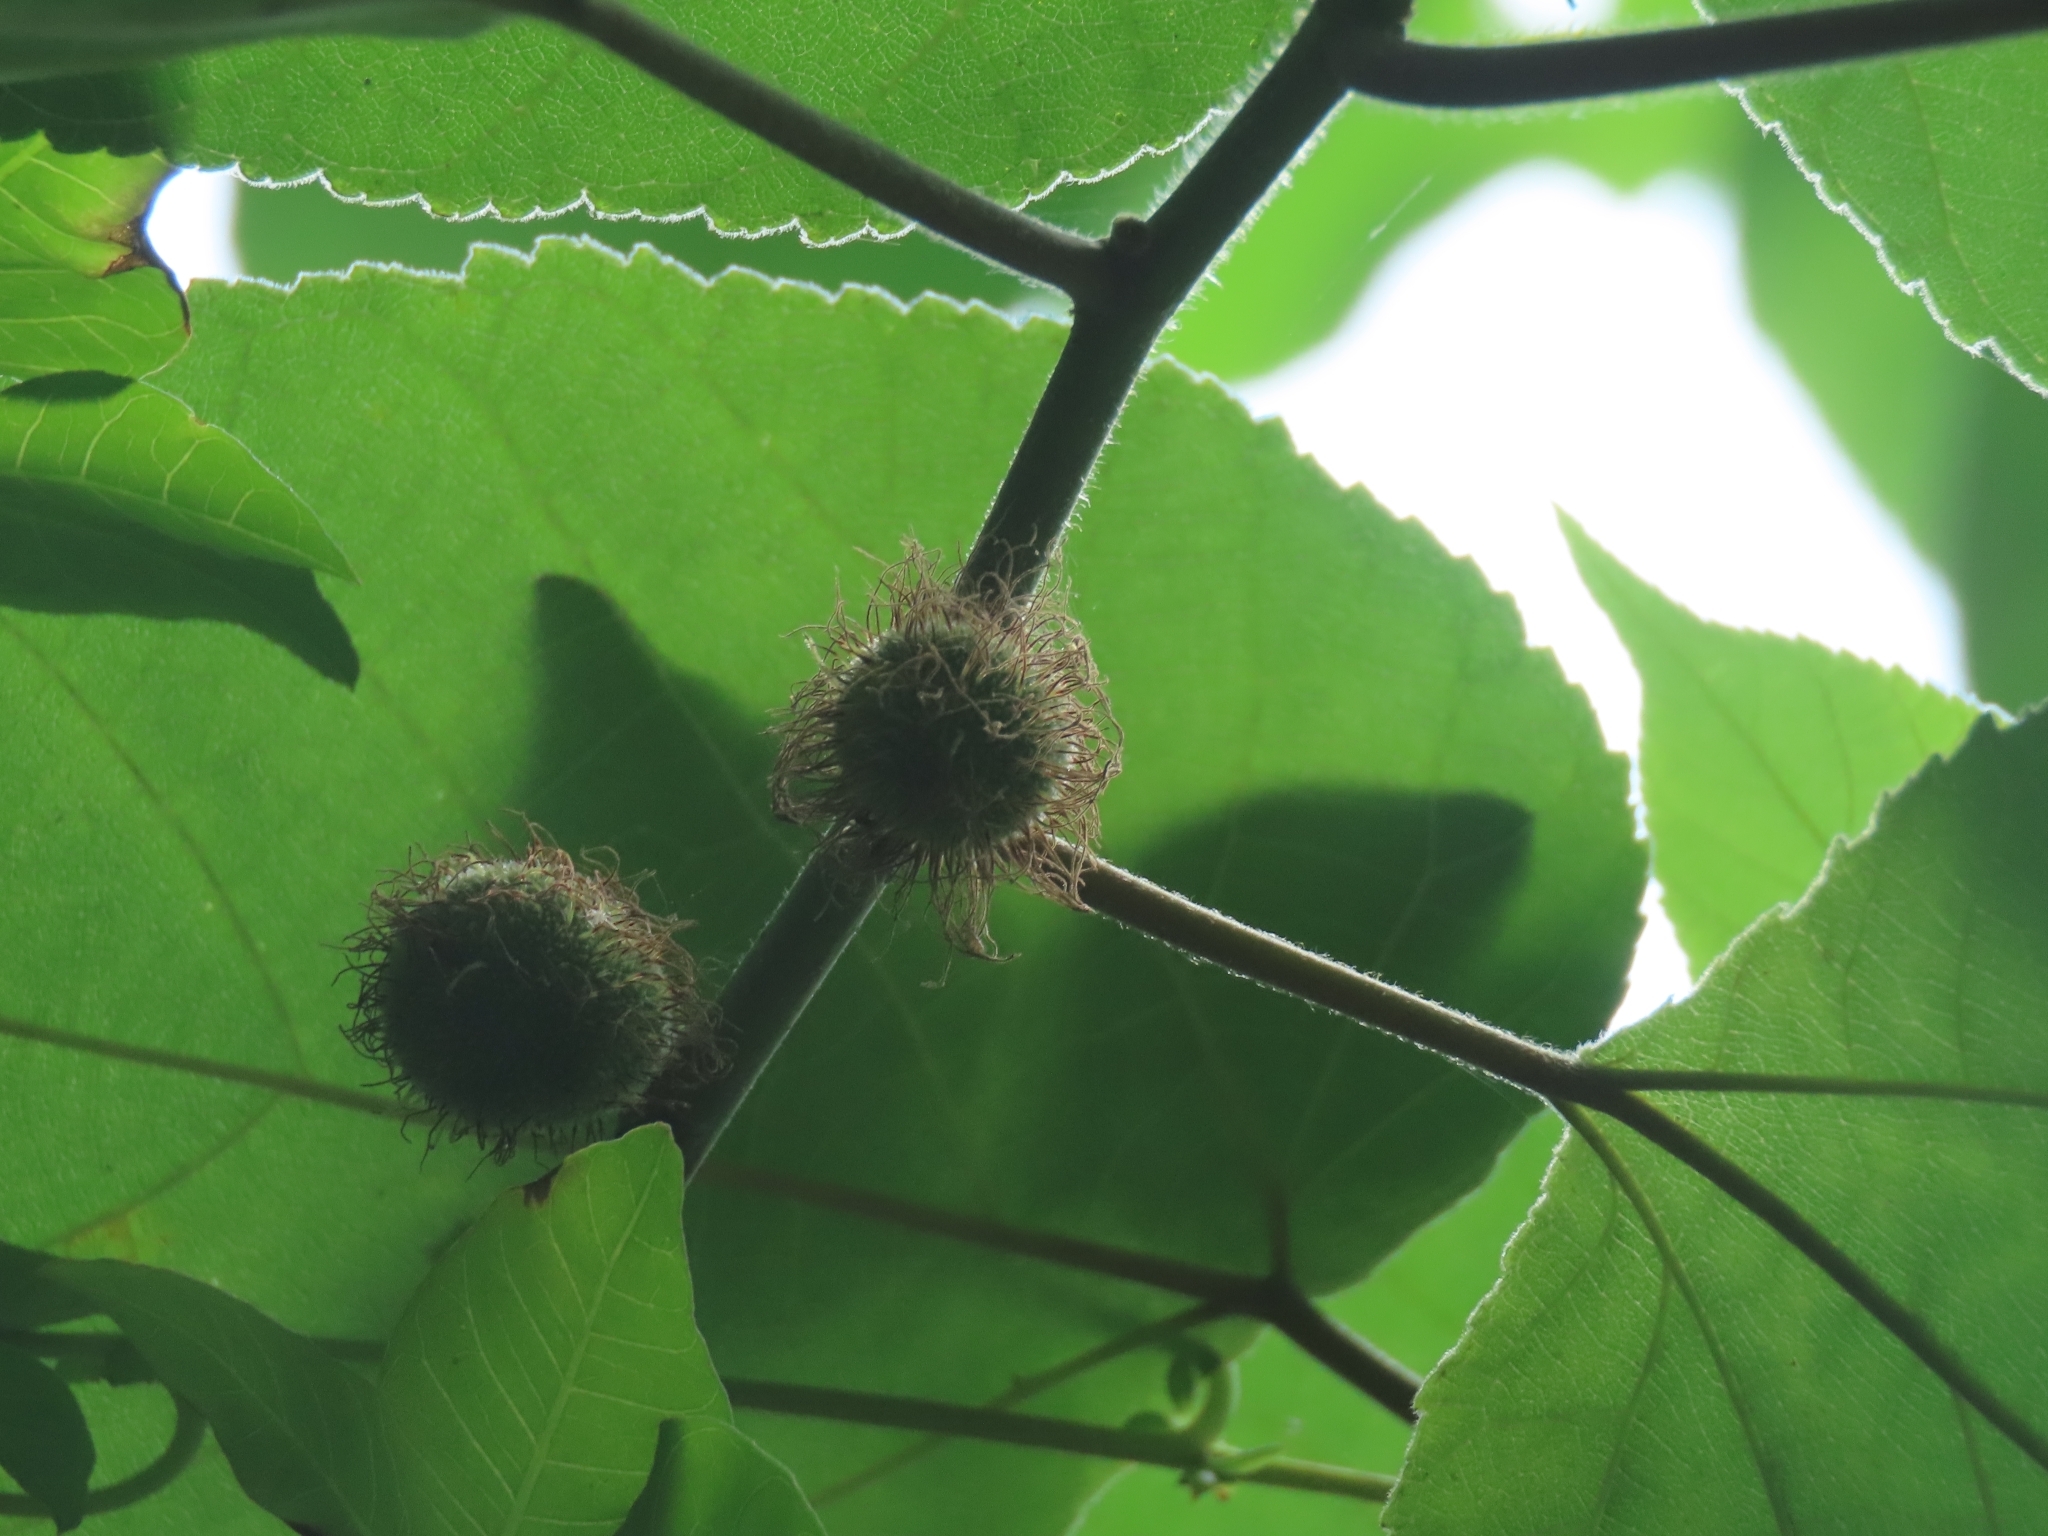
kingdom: Plantae
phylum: Tracheophyta
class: Magnoliopsida
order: Rosales
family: Moraceae
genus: Broussonetia
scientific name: Broussonetia papyrifera
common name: Paper mulberry
